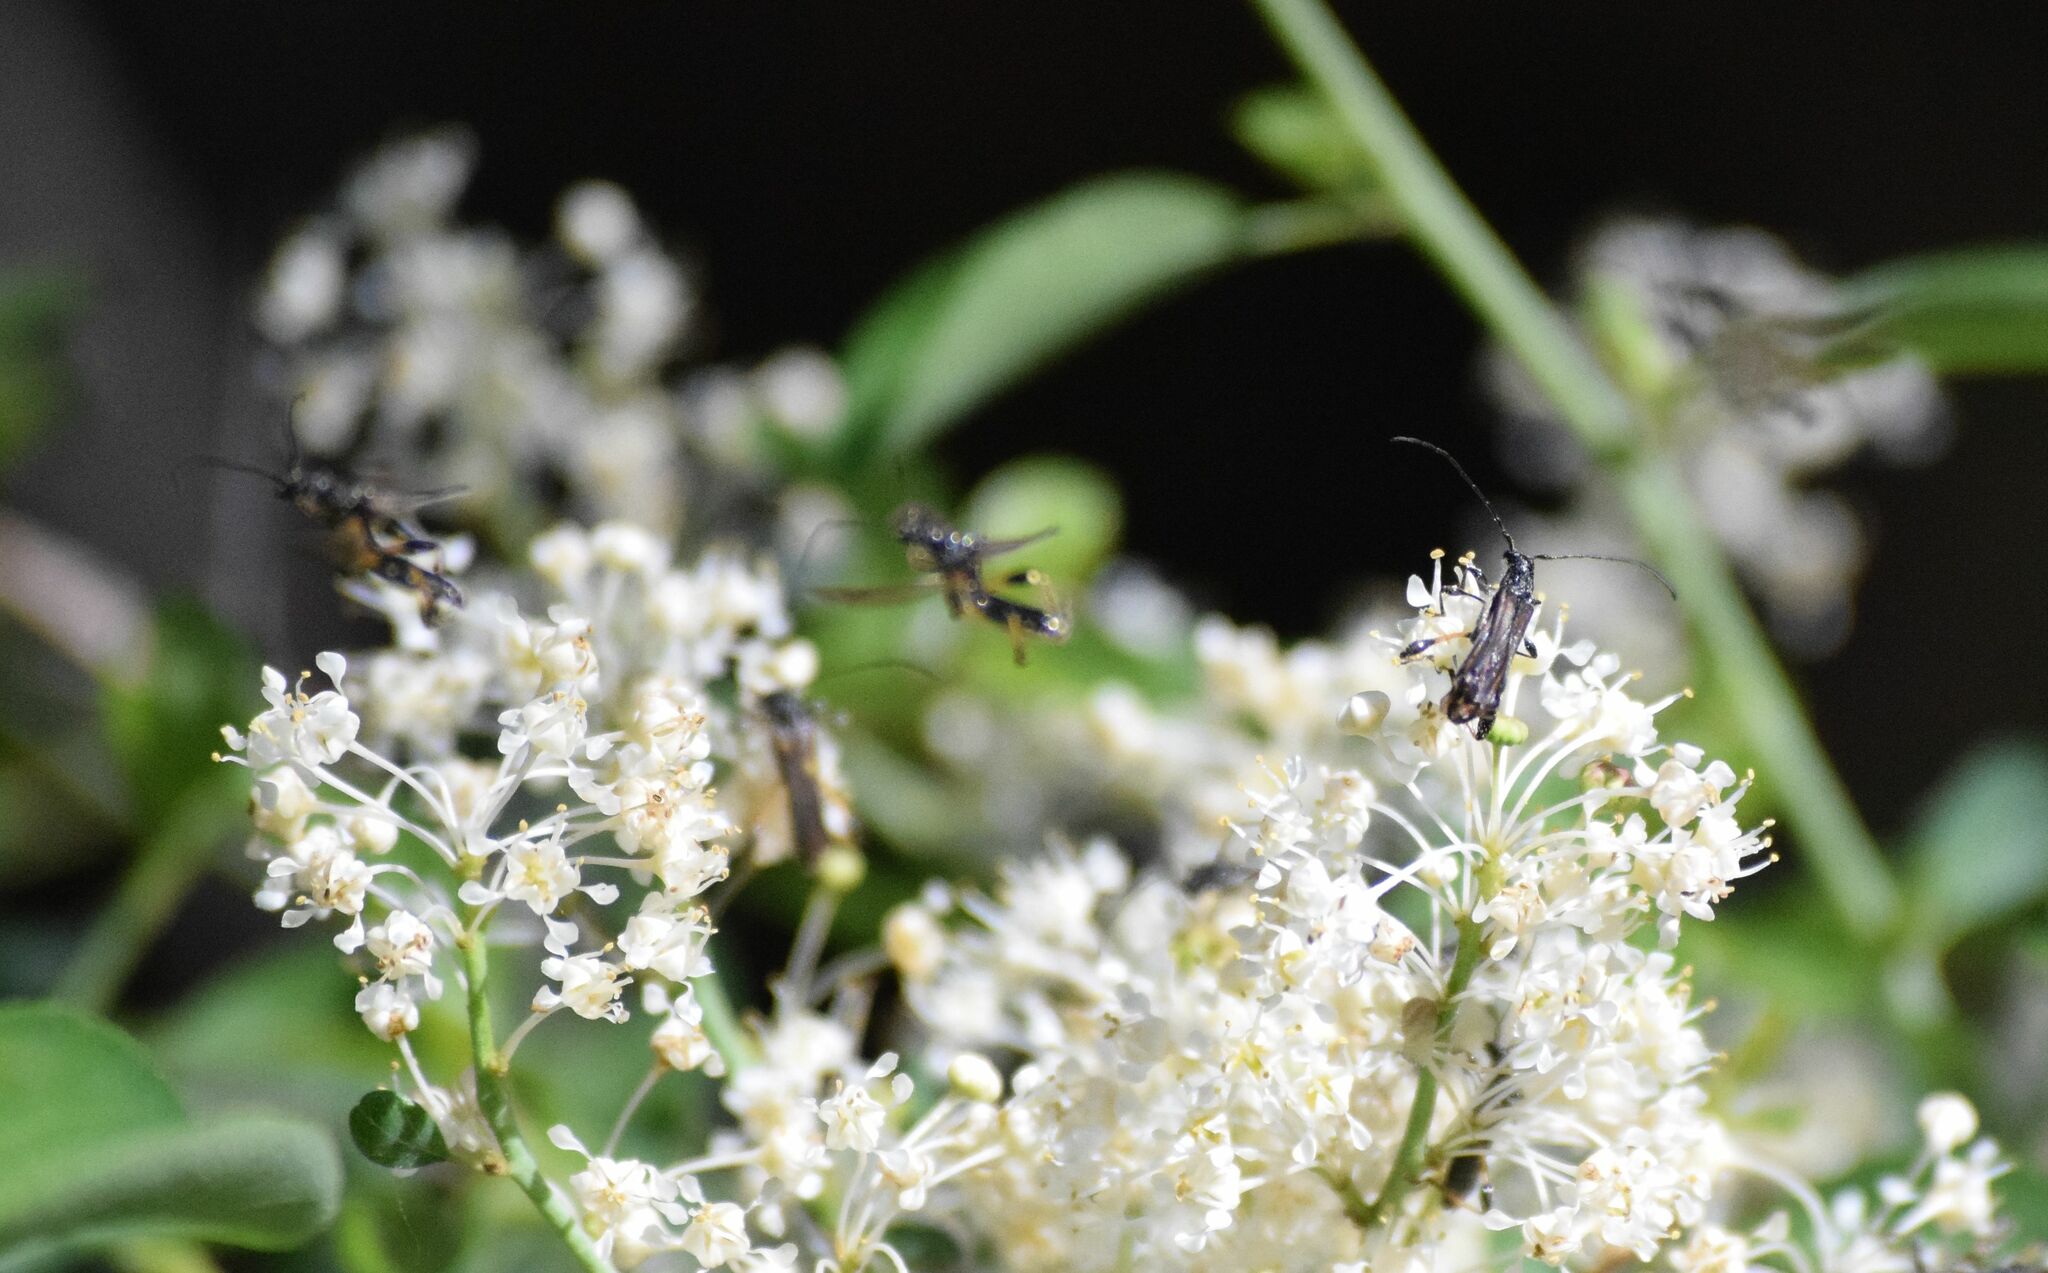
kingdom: Animalia
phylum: Arthropoda
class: Insecta
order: Coleoptera
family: Cerambycidae
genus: Callimoxys
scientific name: Callimoxys fuscipennis
